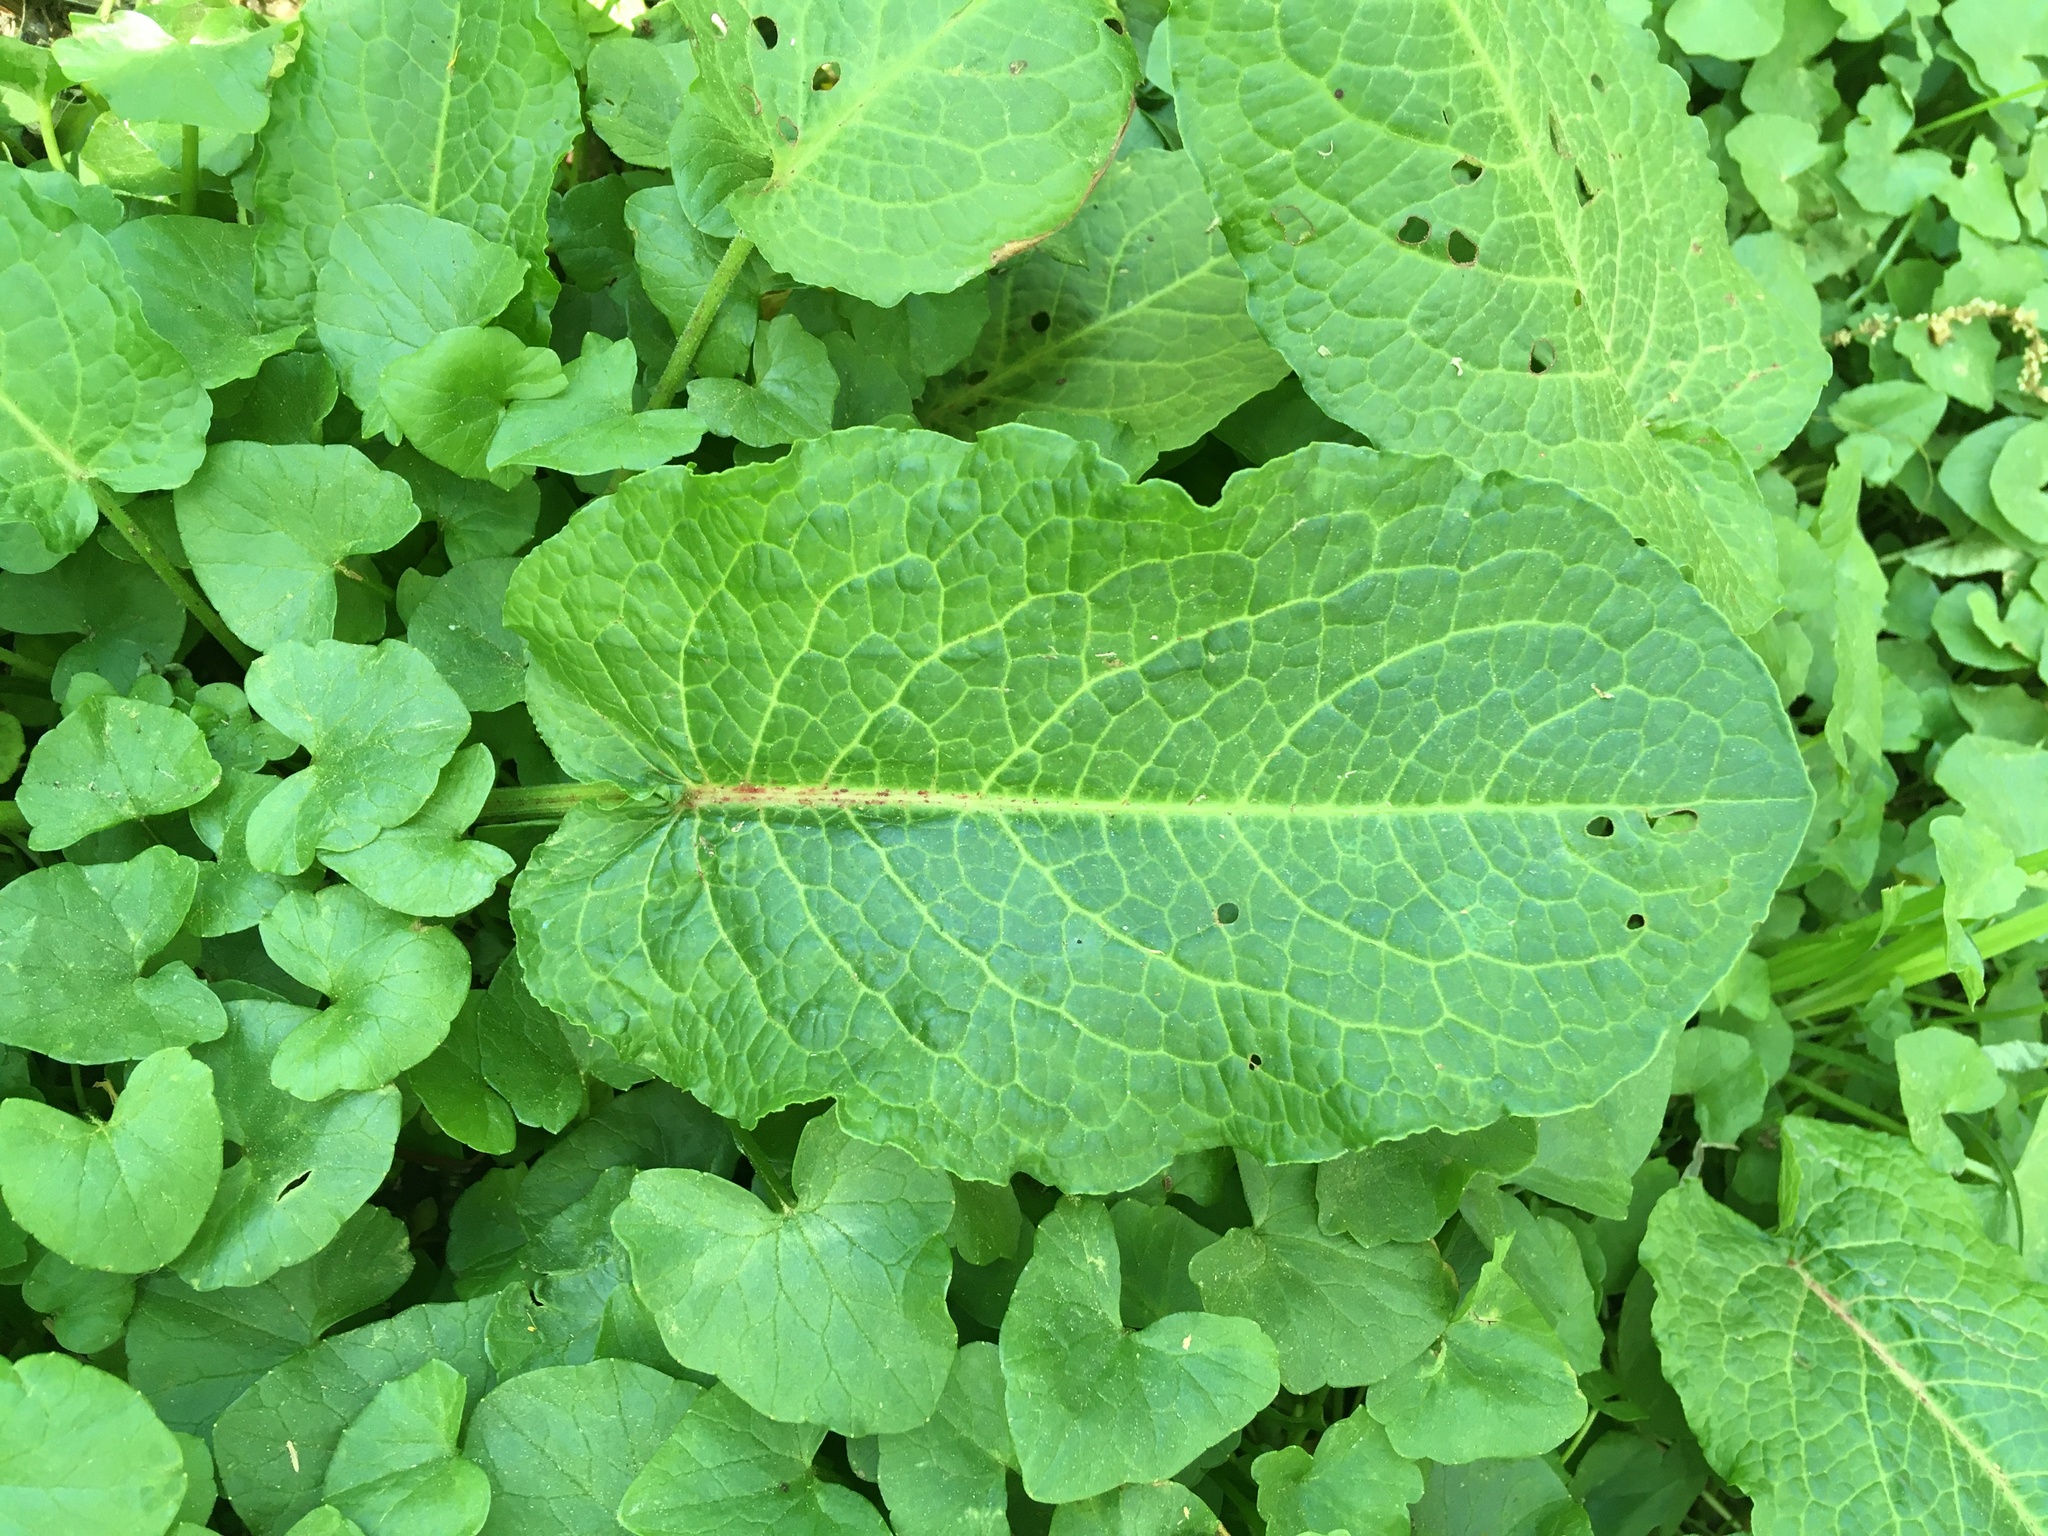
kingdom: Plantae
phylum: Tracheophyta
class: Magnoliopsida
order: Caryophyllales
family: Polygonaceae
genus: Rumex
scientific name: Rumex obtusifolius
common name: Bitter dock
